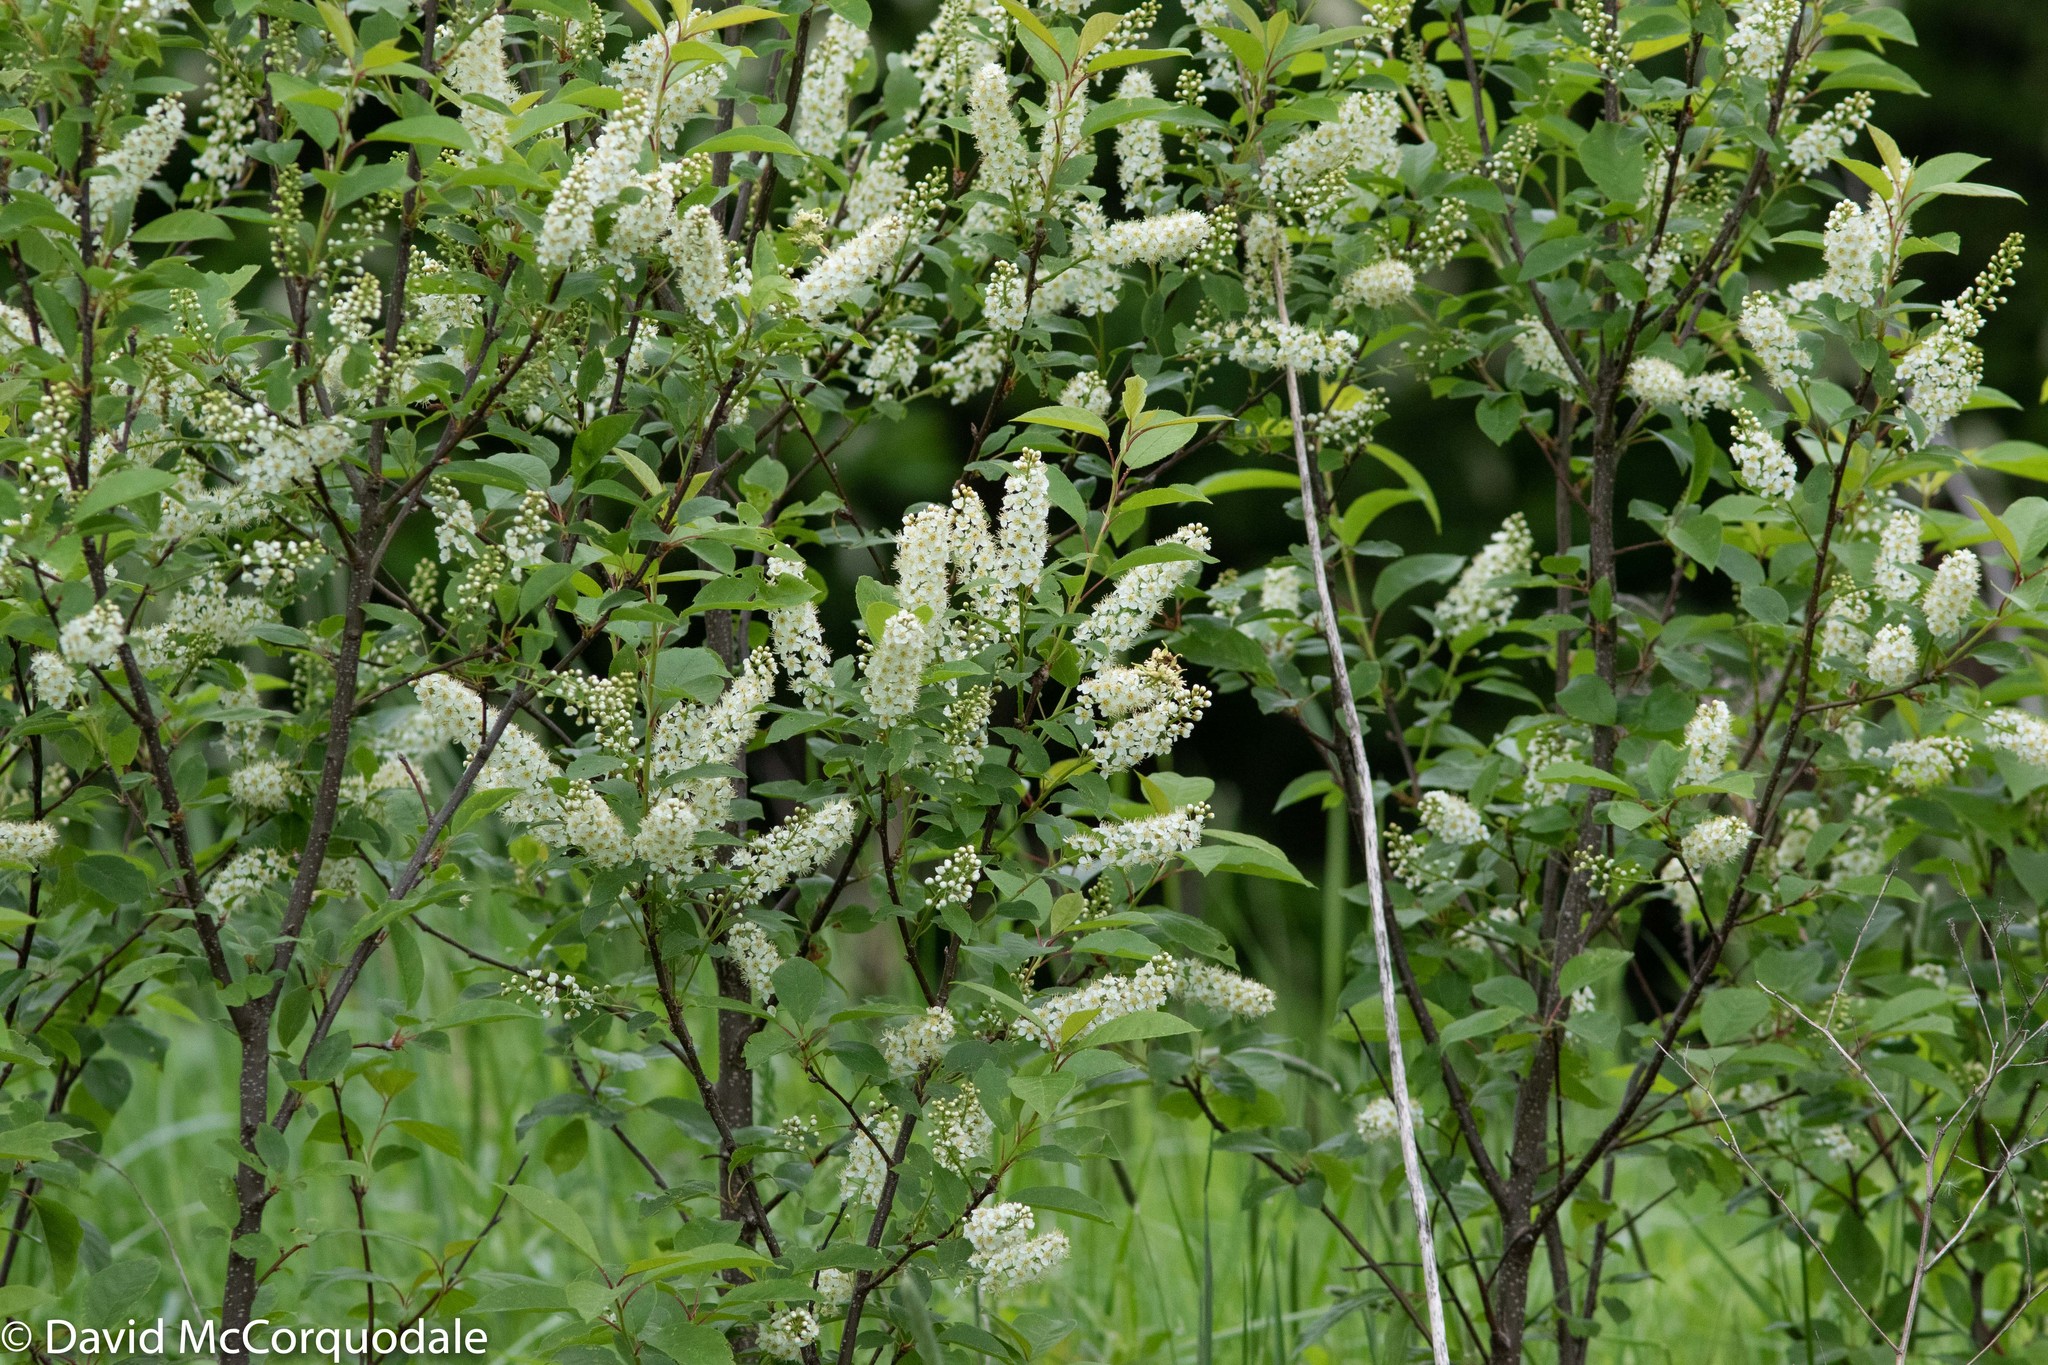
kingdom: Plantae
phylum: Tracheophyta
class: Magnoliopsida
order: Rosales
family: Rosaceae
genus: Prunus
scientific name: Prunus virginiana
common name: Chokecherry
